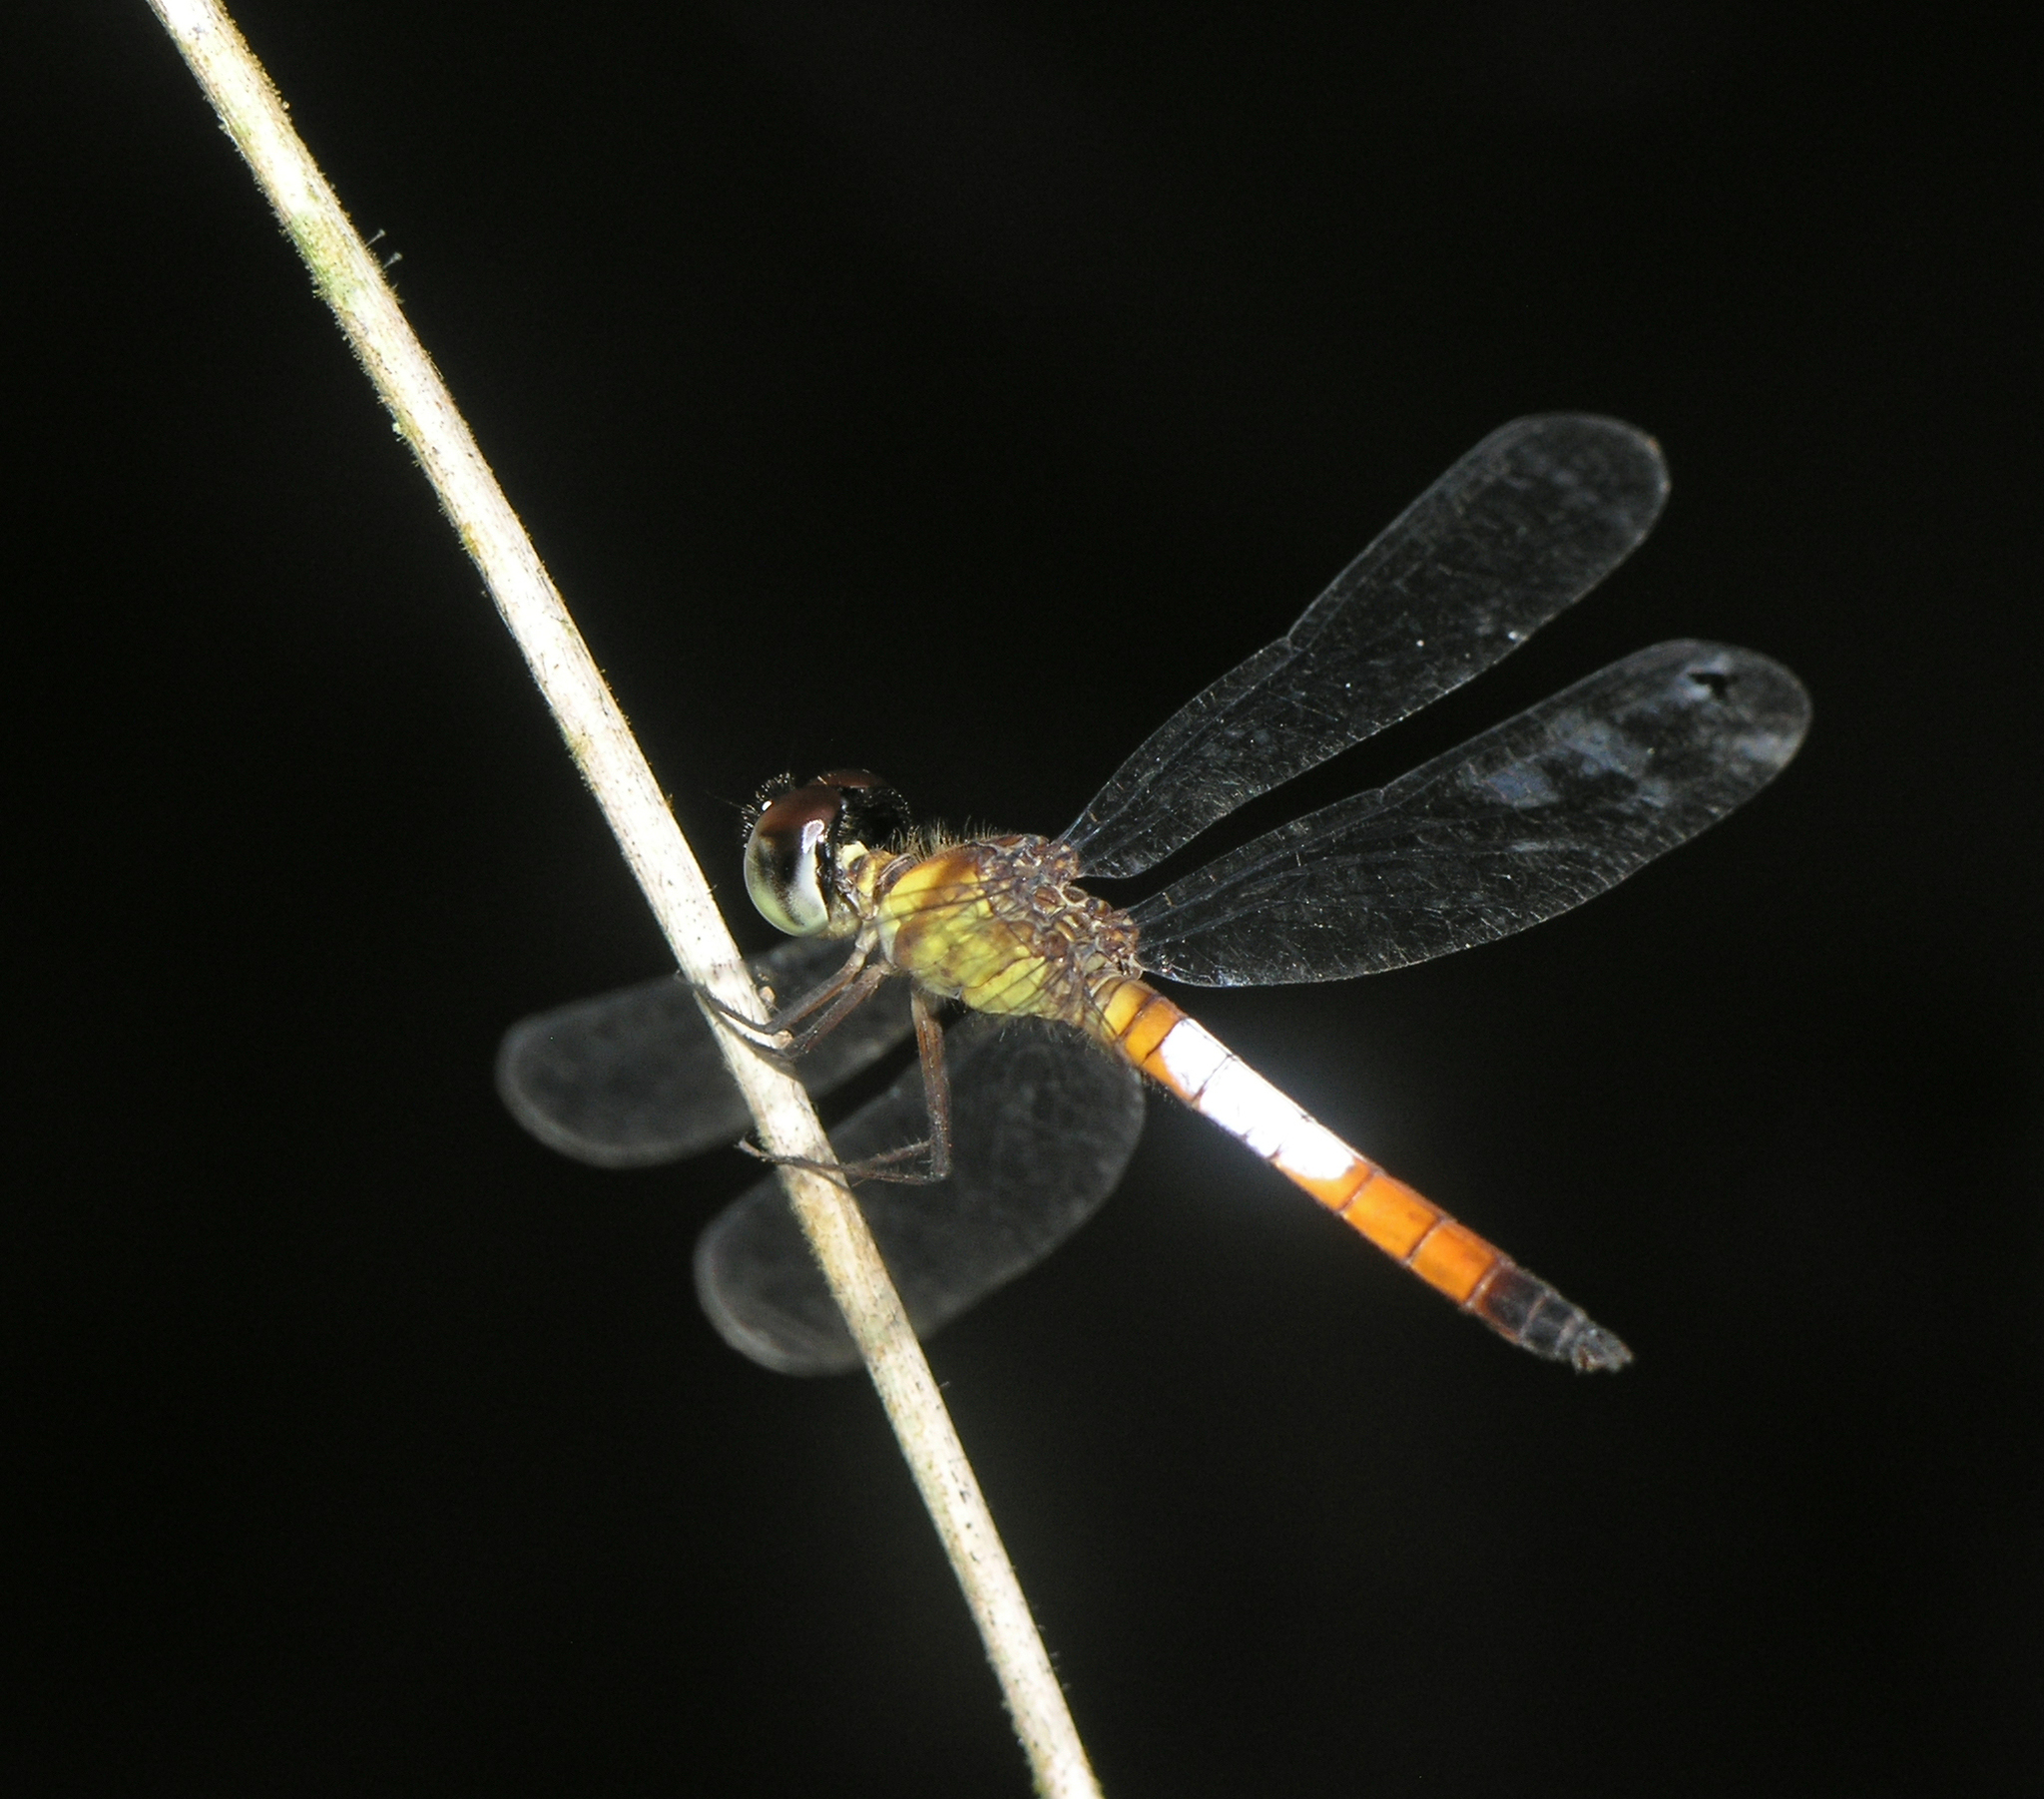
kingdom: Animalia
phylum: Arthropoda
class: Insecta
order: Odonata
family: Libellulidae
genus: Brachygonia
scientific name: Brachygonia oculata
